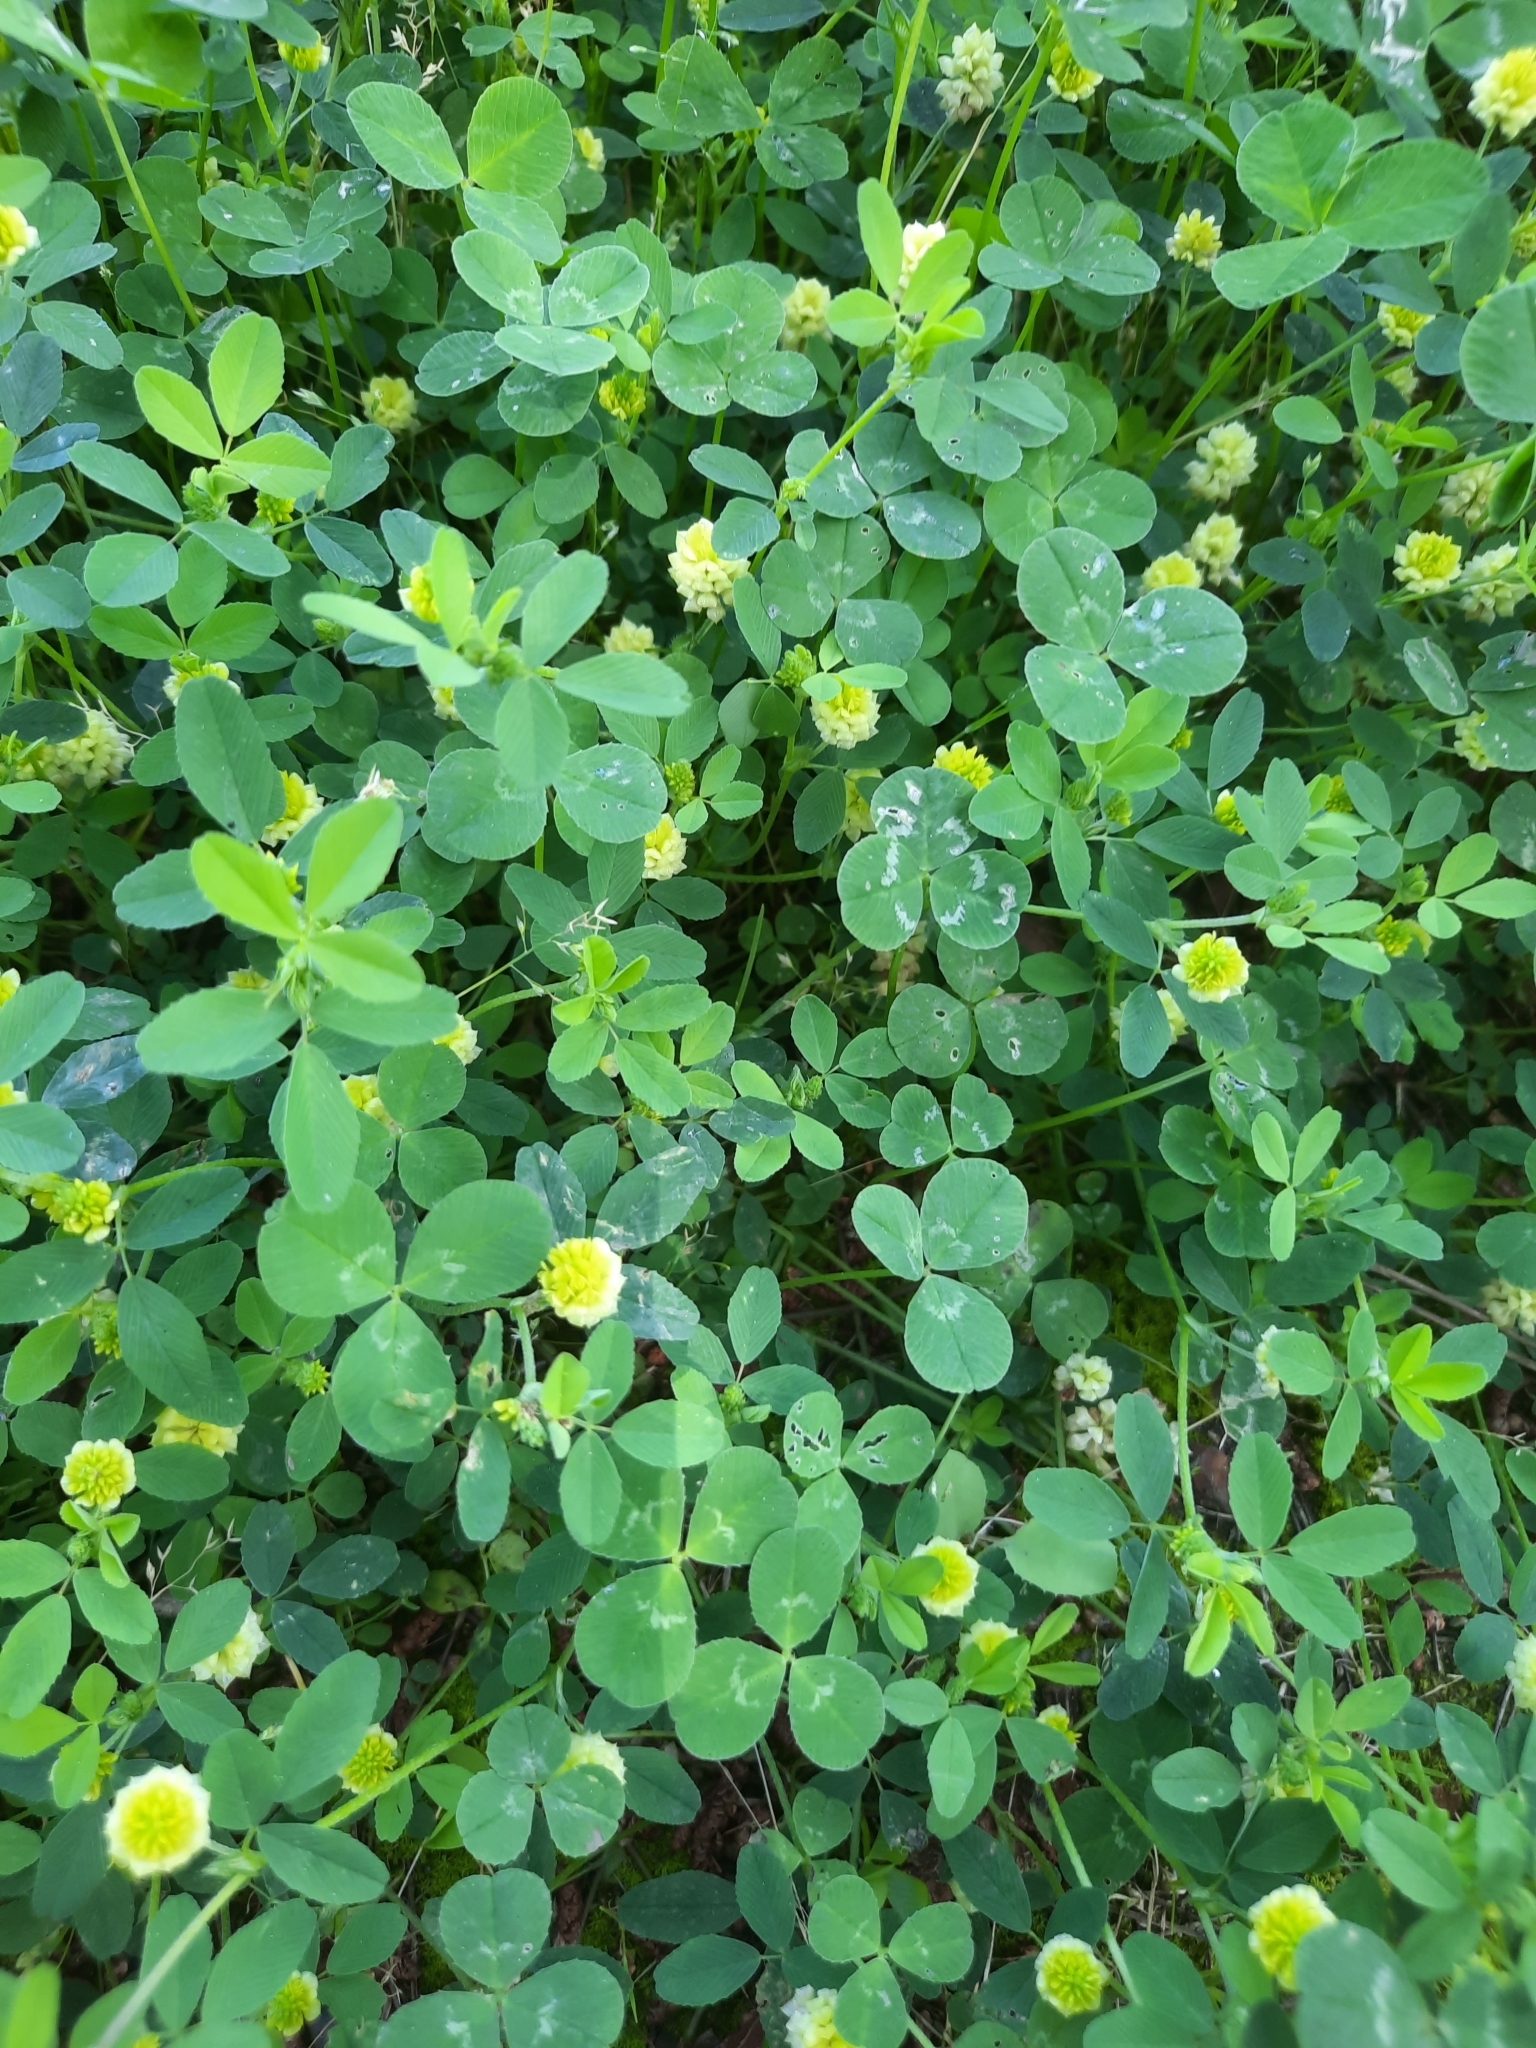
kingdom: Plantae
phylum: Tracheophyta
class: Magnoliopsida
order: Fabales
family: Fabaceae
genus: Trifolium
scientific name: Trifolium campestre
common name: Field clover
